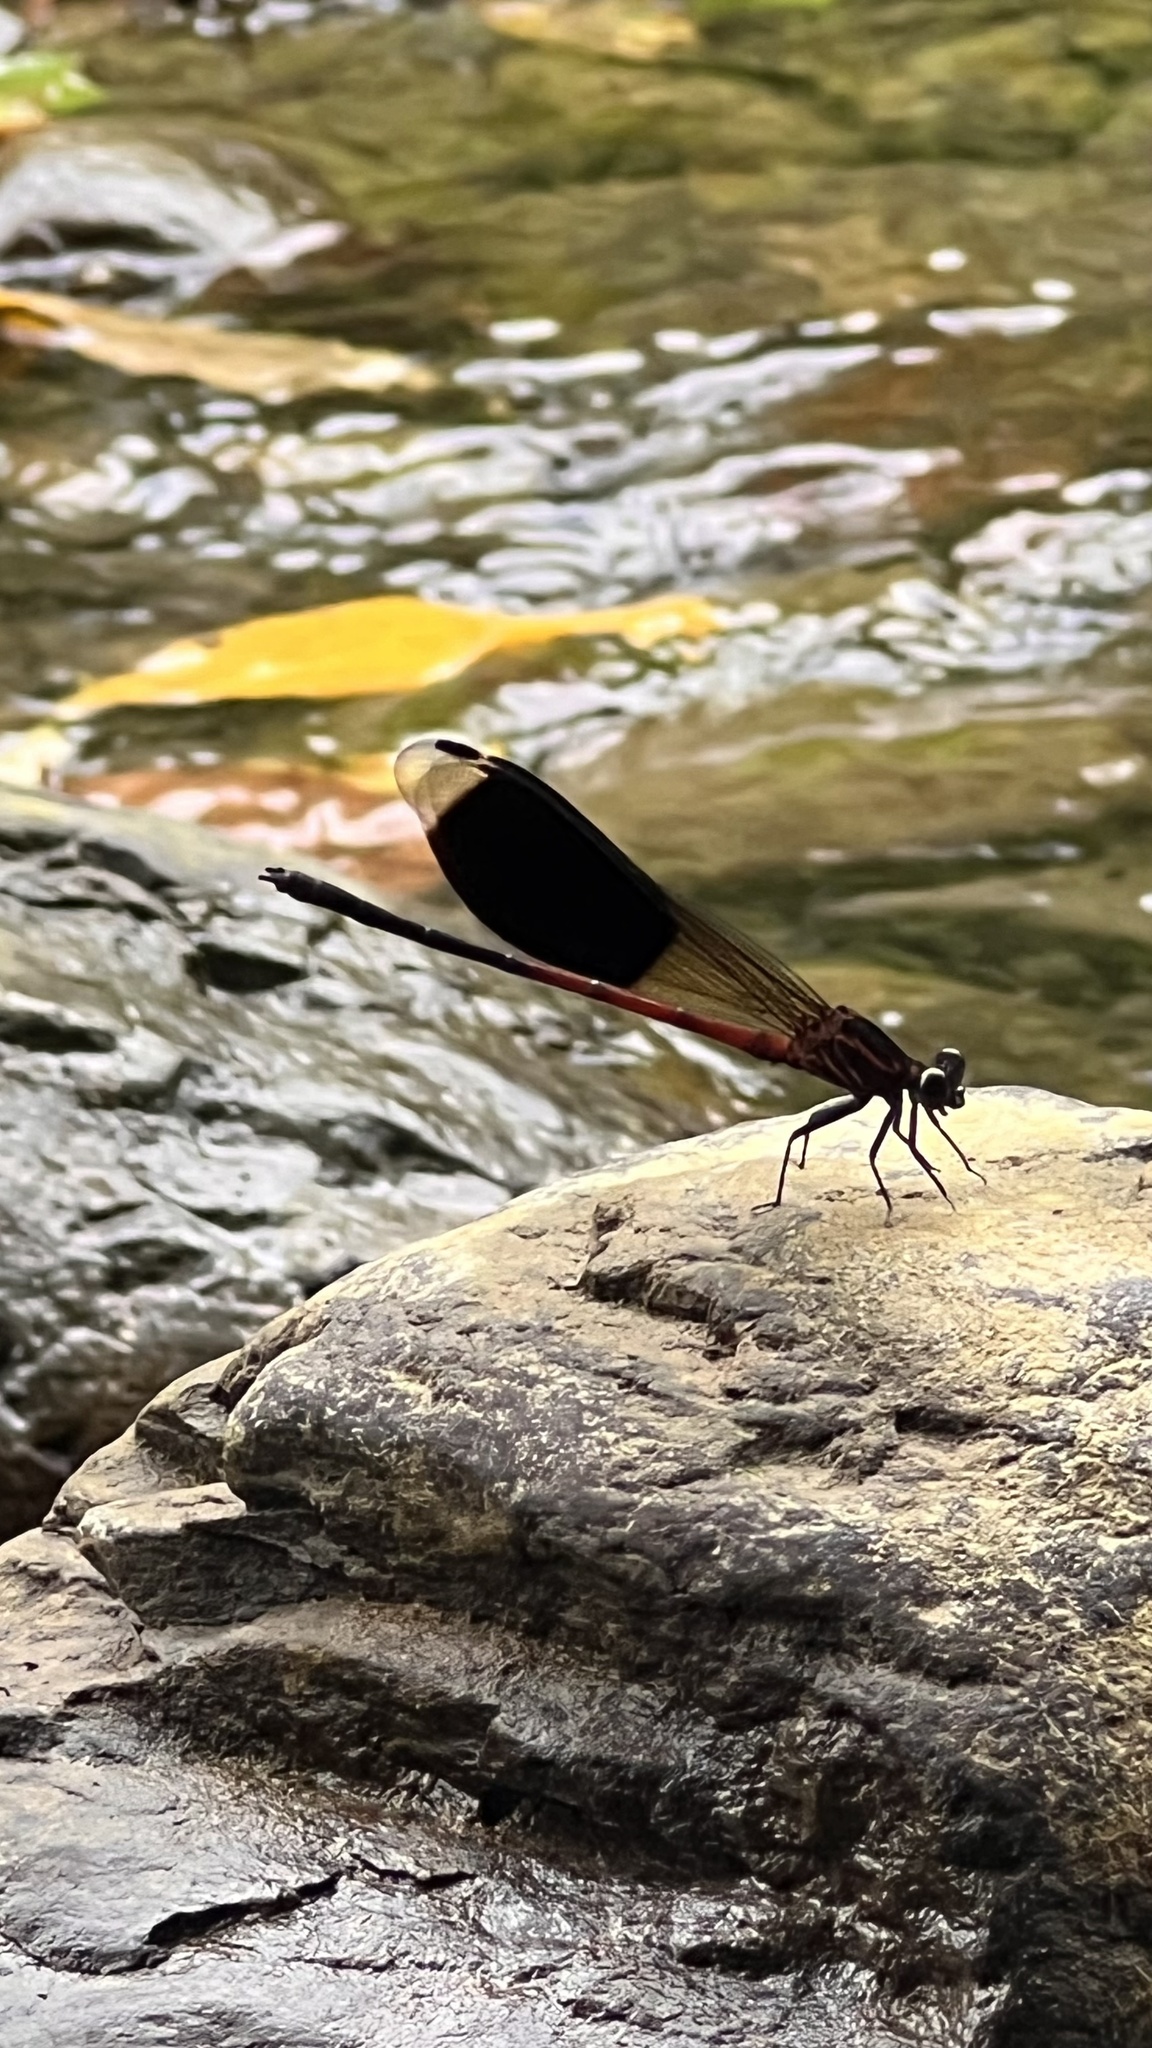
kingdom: Animalia
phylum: Arthropoda
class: Insecta
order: Odonata
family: Euphaeidae
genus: Euphaea
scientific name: Euphaea formosa
